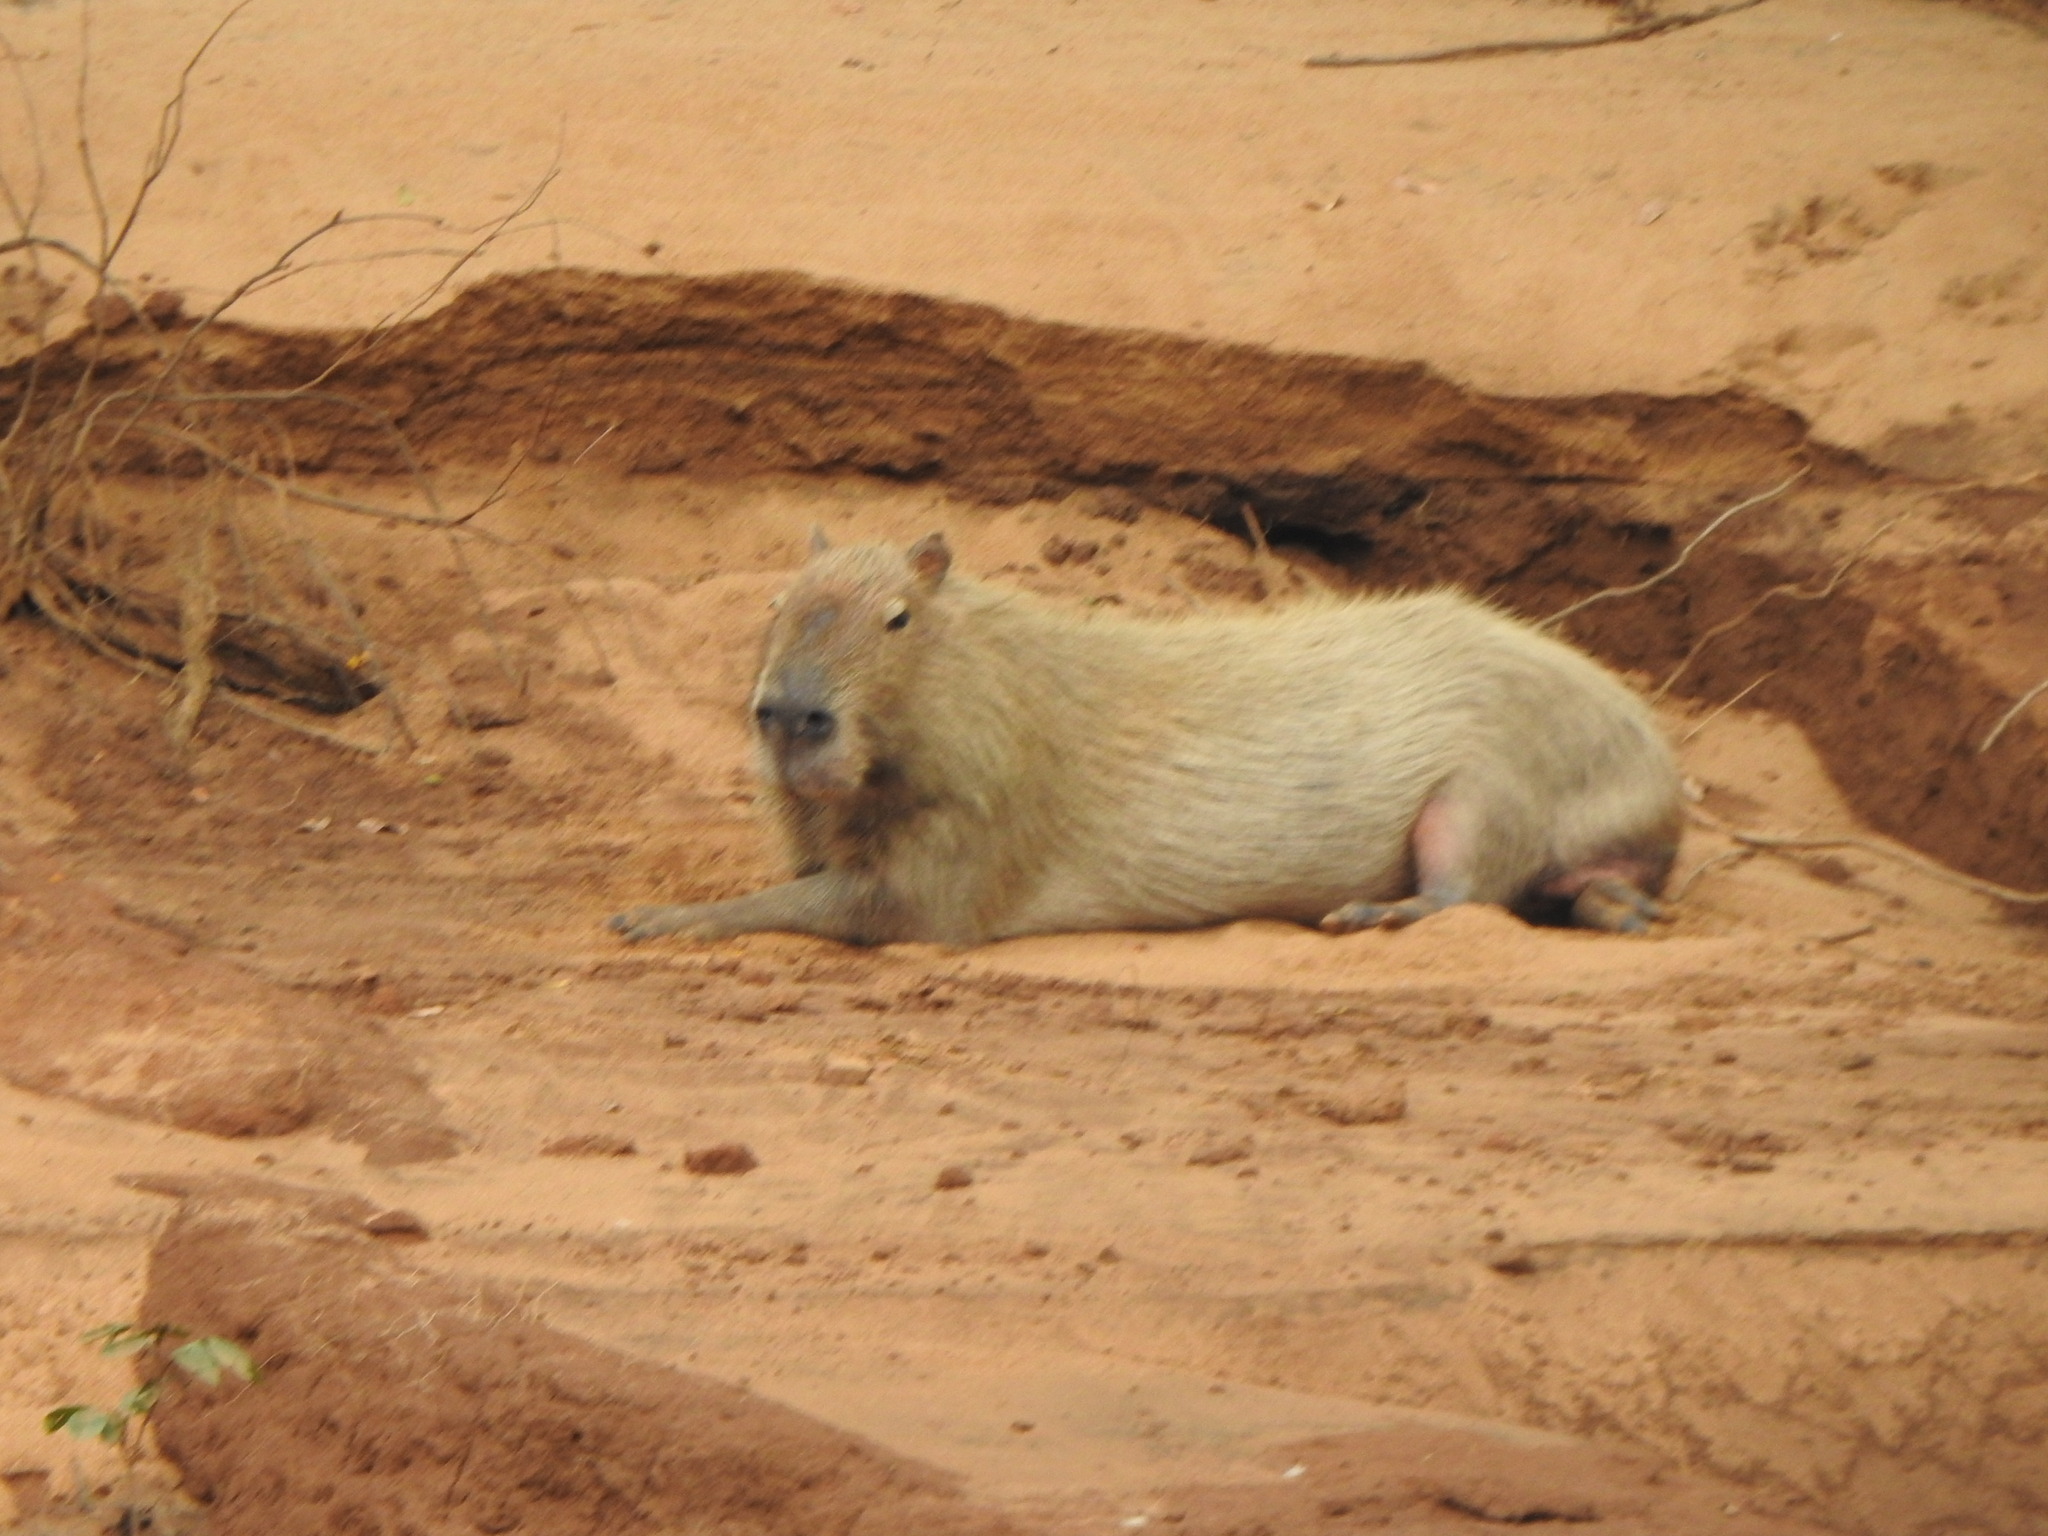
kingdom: Animalia
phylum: Chordata
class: Mammalia
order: Rodentia
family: Caviidae
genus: Hydrochoerus
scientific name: Hydrochoerus hydrochaeris
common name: Capybara
